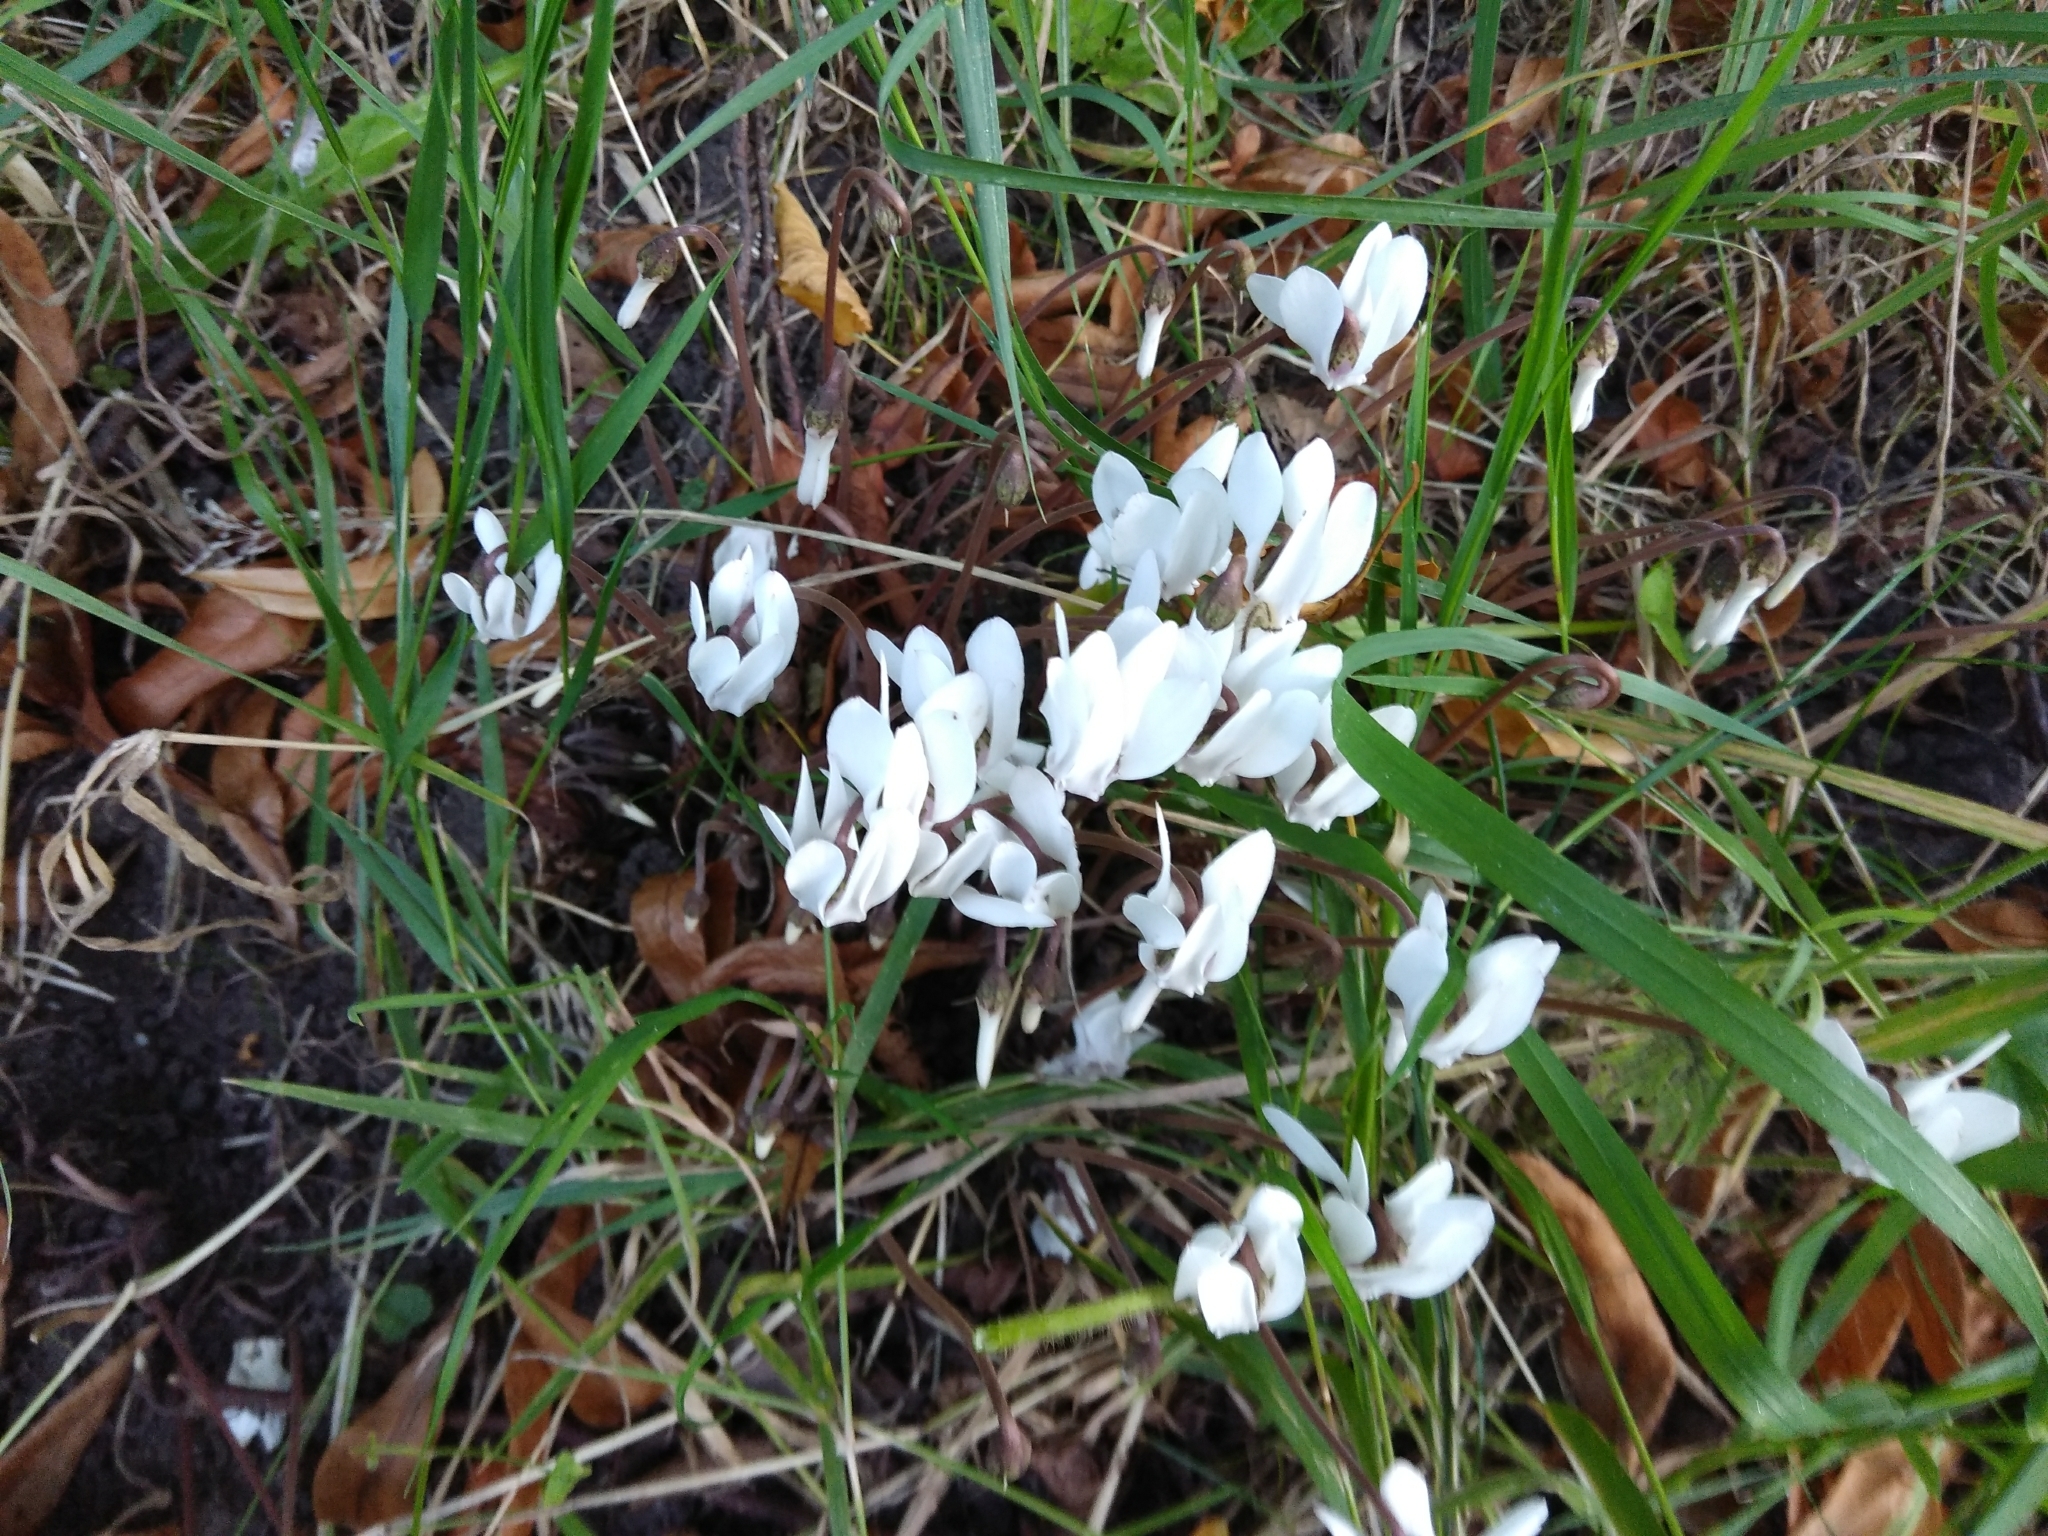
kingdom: Plantae
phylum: Tracheophyta
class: Magnoliopsida
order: Ericales
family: Primulaceae
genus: Cyclamen
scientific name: Cyclamen hederifolium
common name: Sowbread
